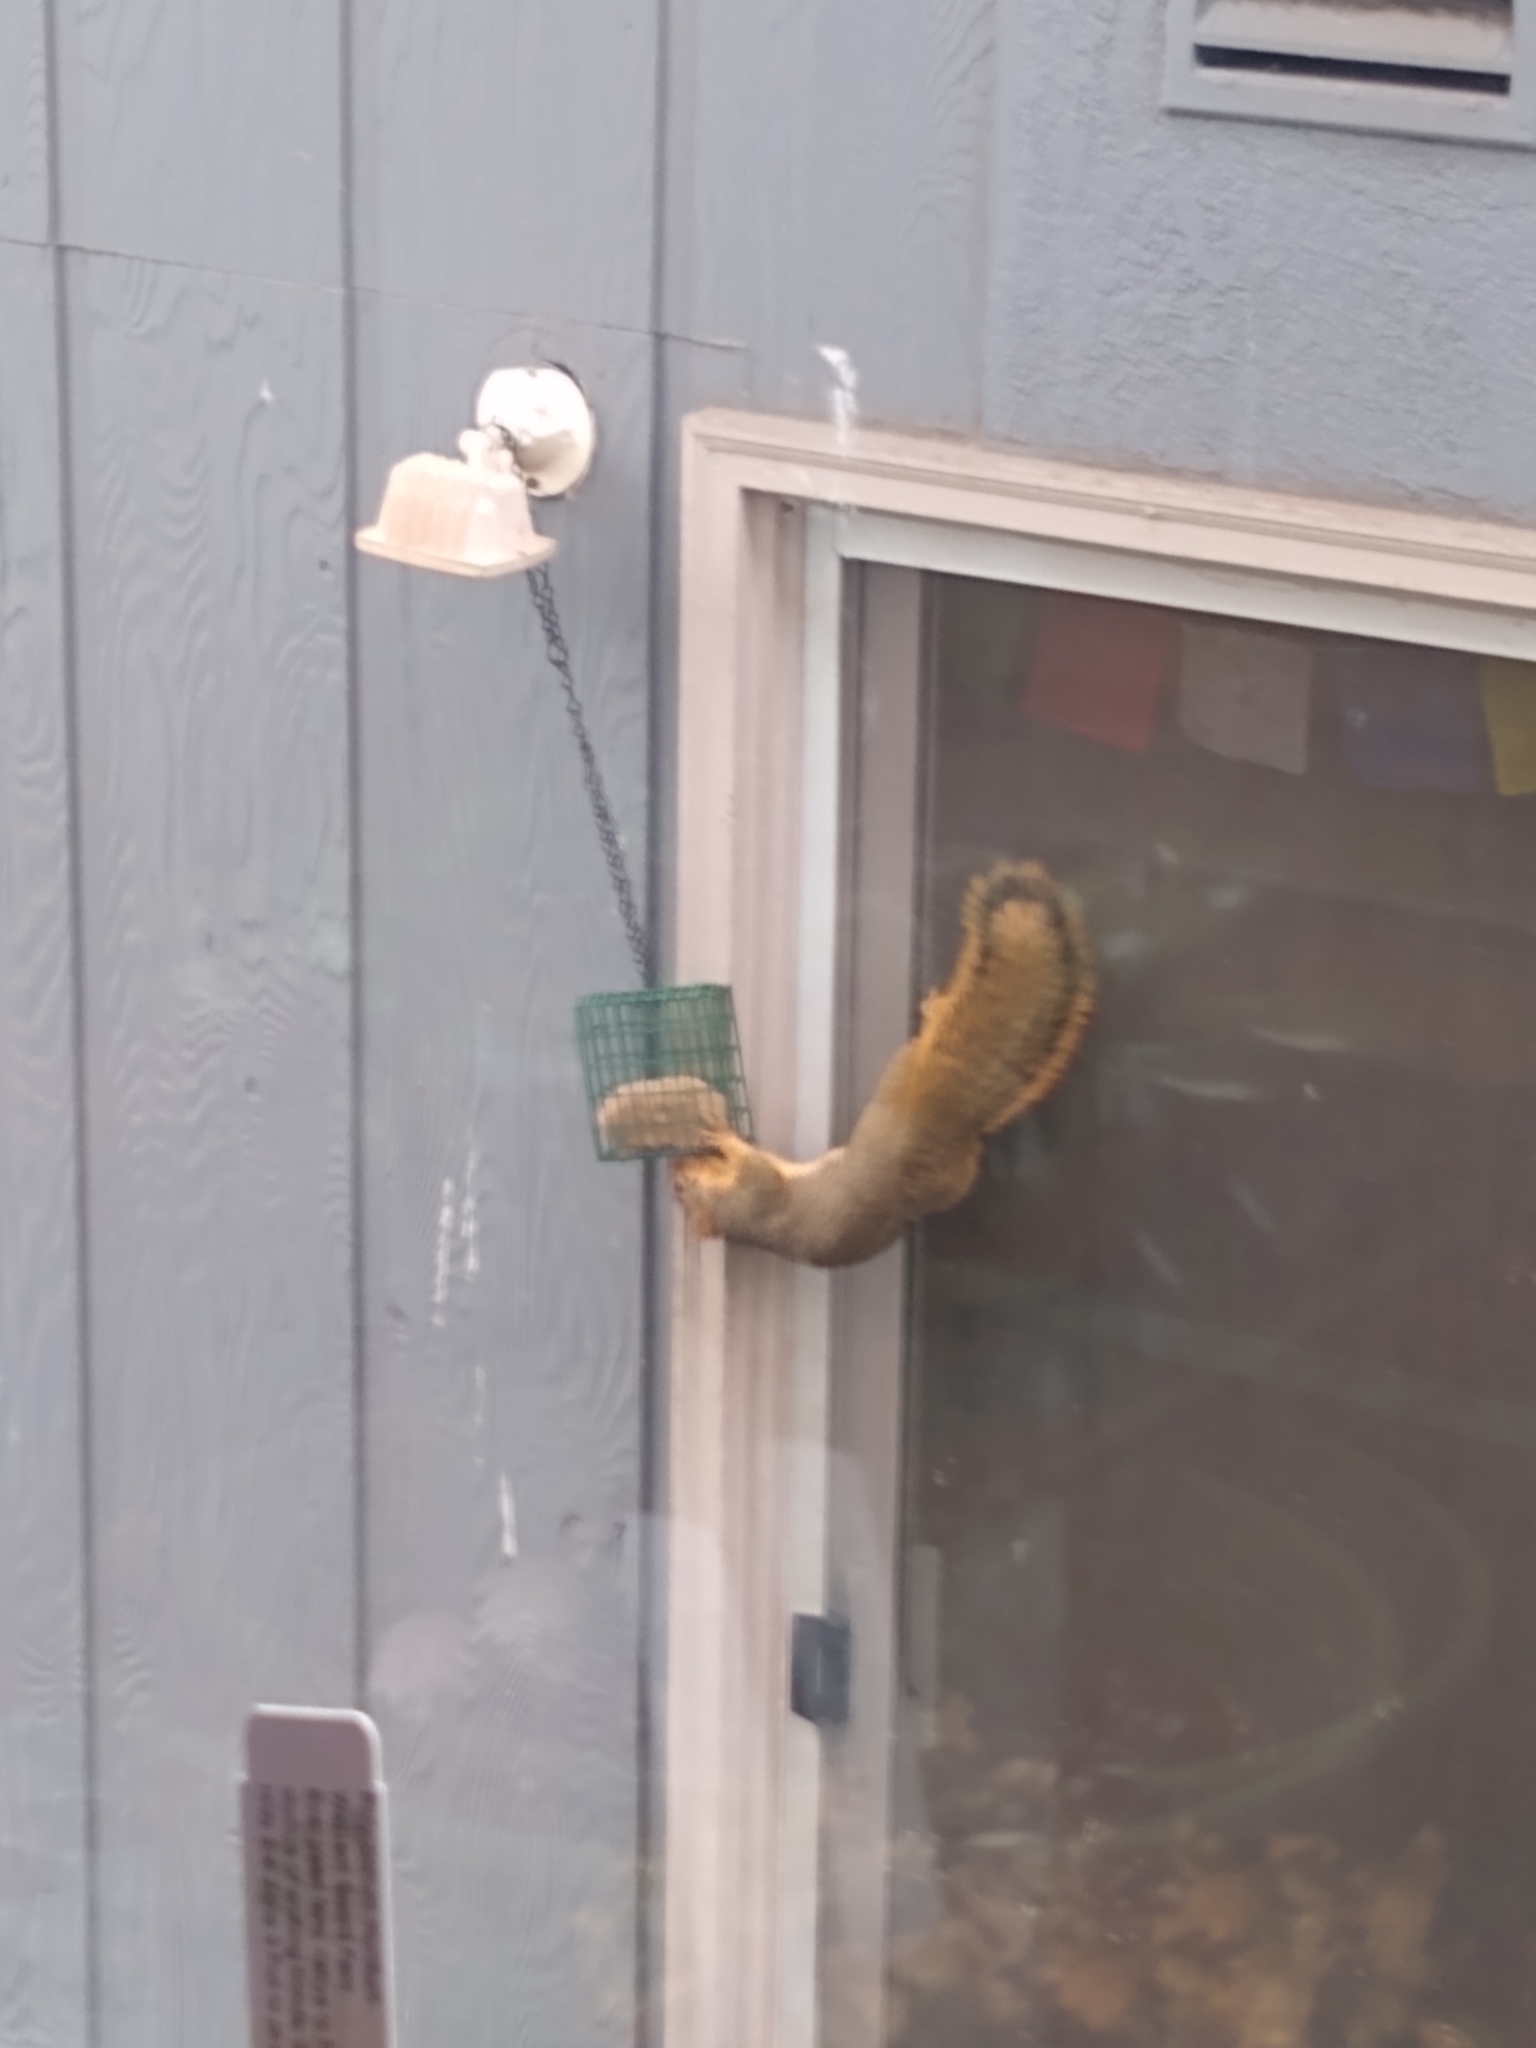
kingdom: Animalia
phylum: Chordata
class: Mammalia
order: Rodentia
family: Sciuridae
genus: Sciurus
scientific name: Sciurus niger
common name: Fox squirrel
